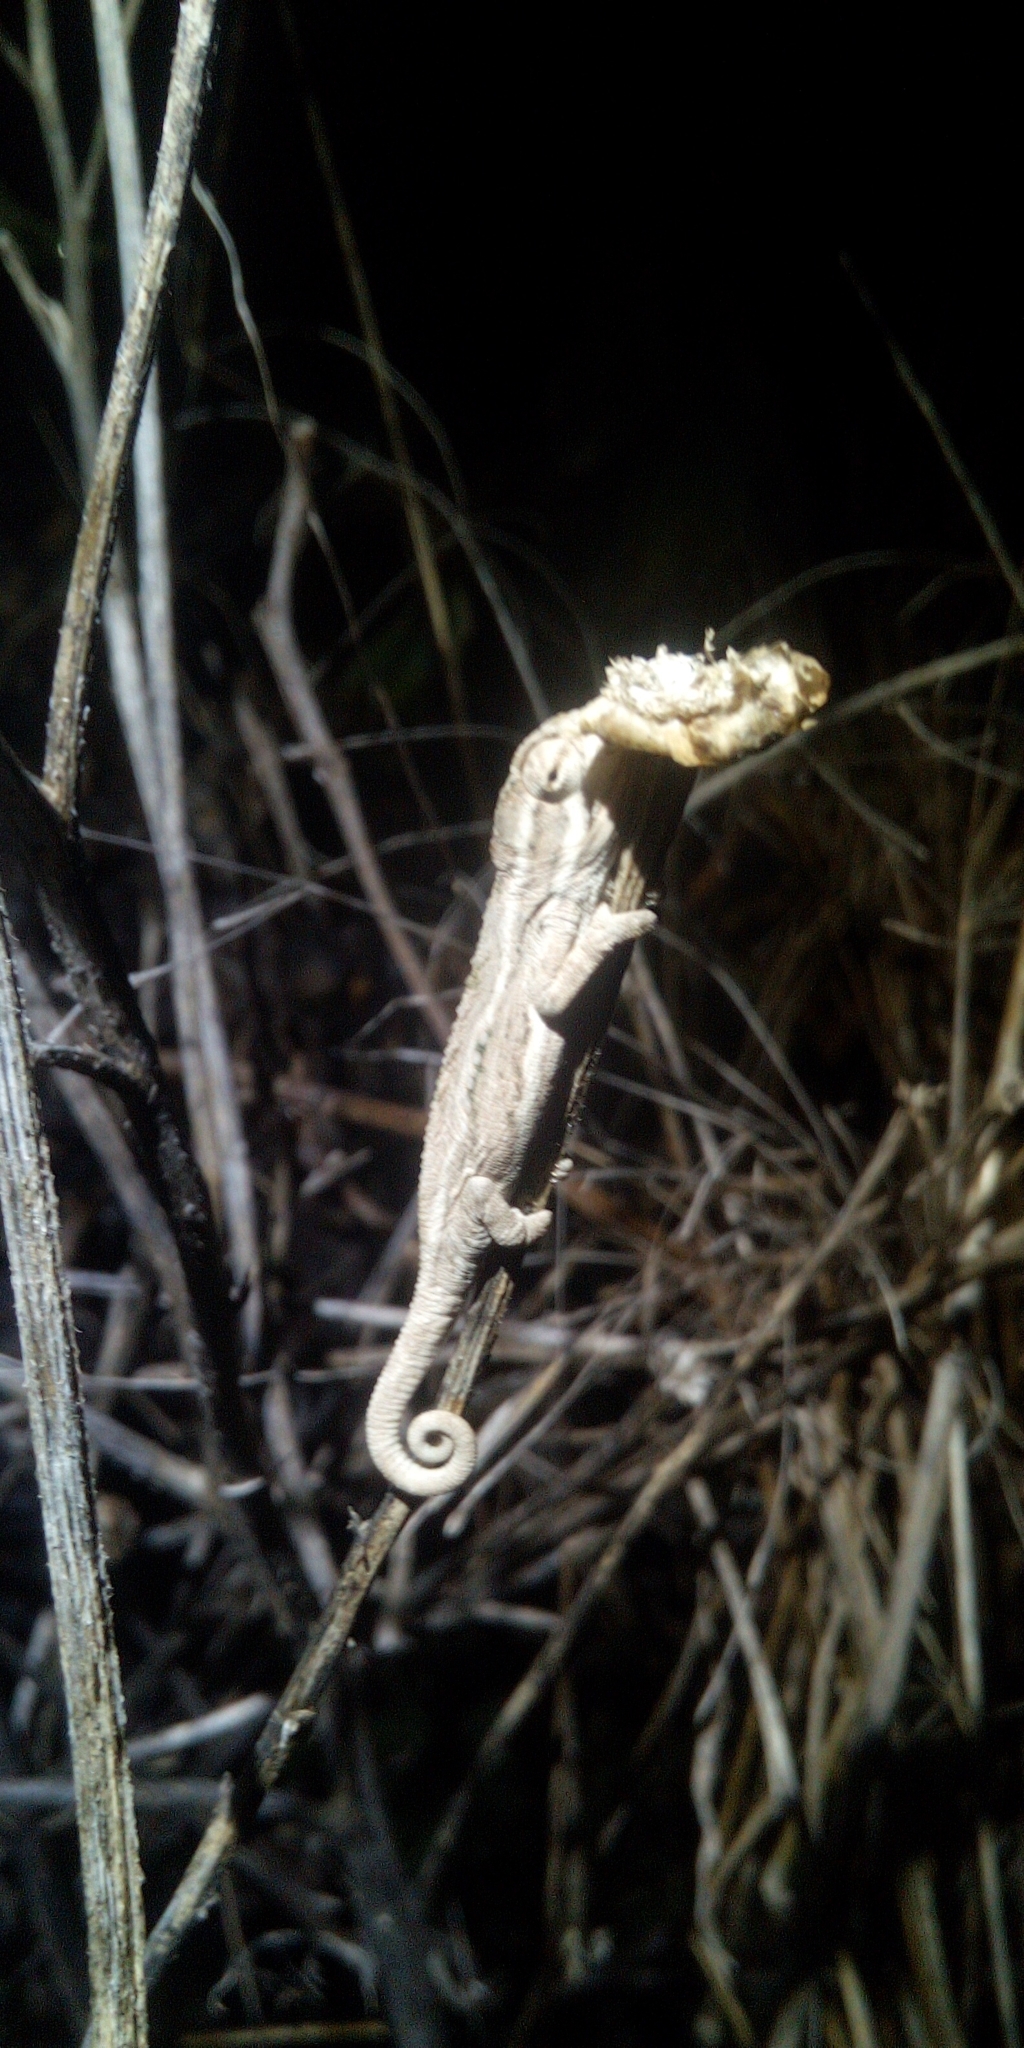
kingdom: Animalia
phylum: Chordata
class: Squamata
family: Chamaeleonidae
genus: Bradypodion
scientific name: Bradypodion pumilum
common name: Cape dwarf chameleon
